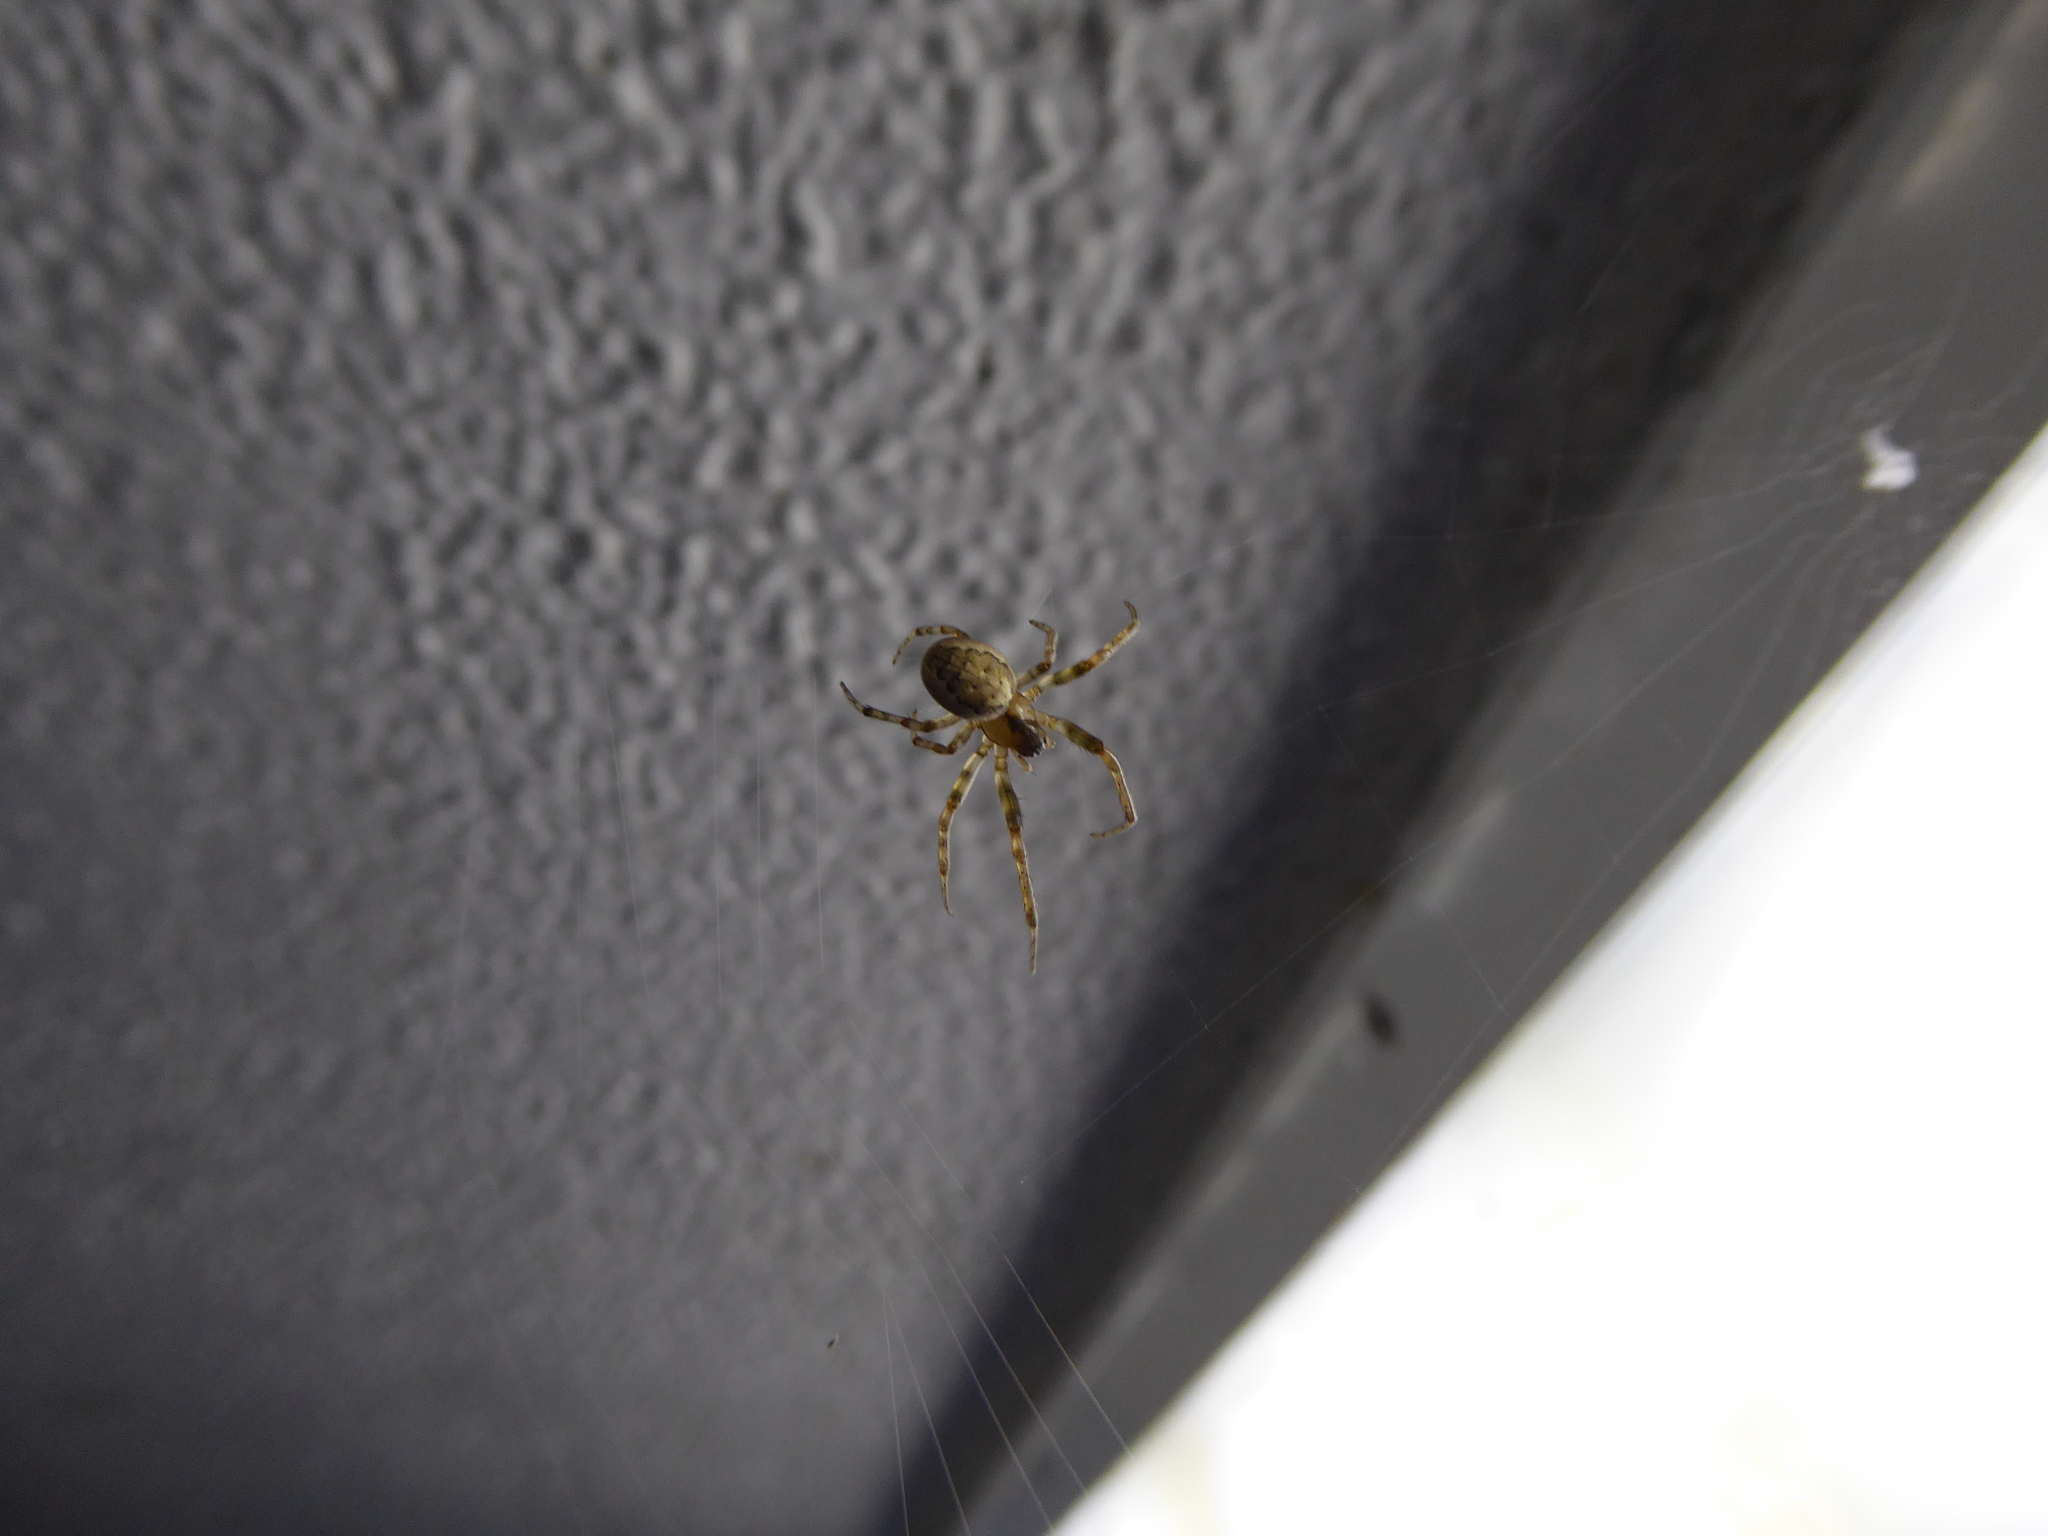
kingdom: Animalia
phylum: Arthropoda
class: Arachnida
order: Araneae
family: Araneidae
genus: Zygiella
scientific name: Zygiella
